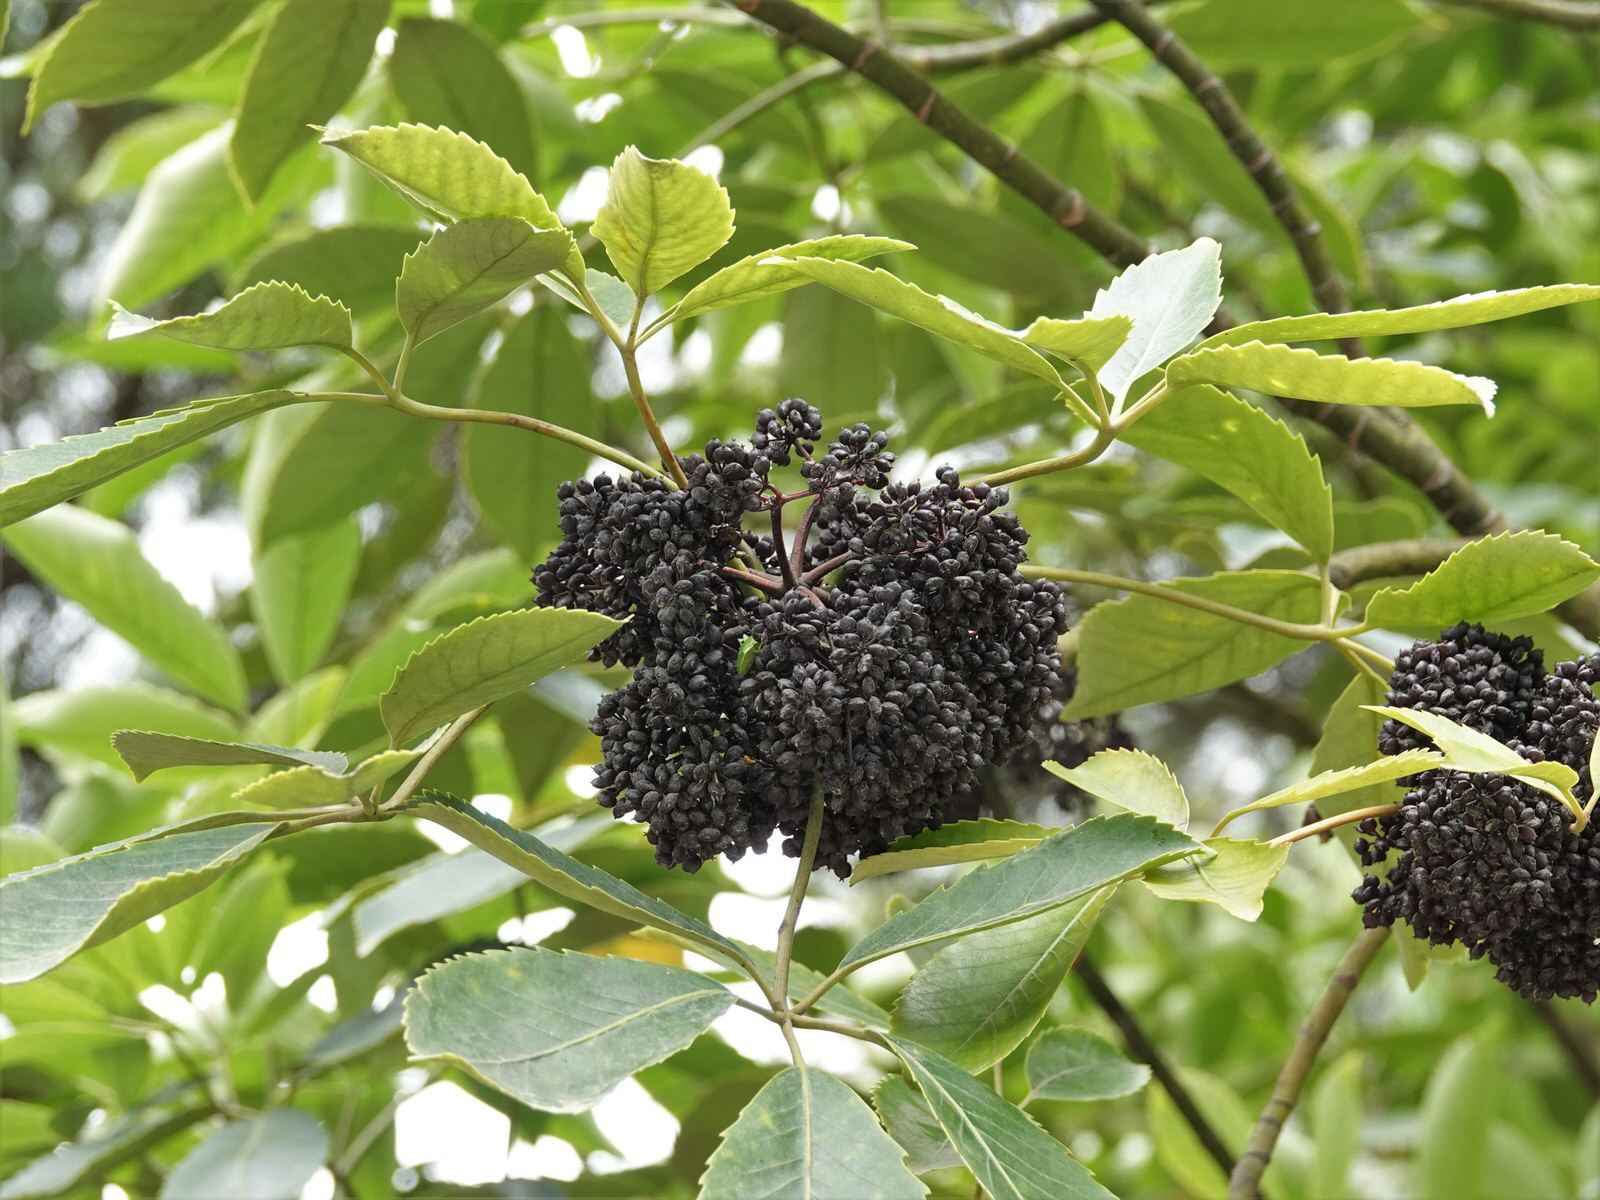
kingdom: Plantae
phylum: Tracheophyta
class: Magnoliopsida
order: Apiales
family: Araliaceae
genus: Neopanax
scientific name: Neopanax arboreus
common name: Five-fingers
